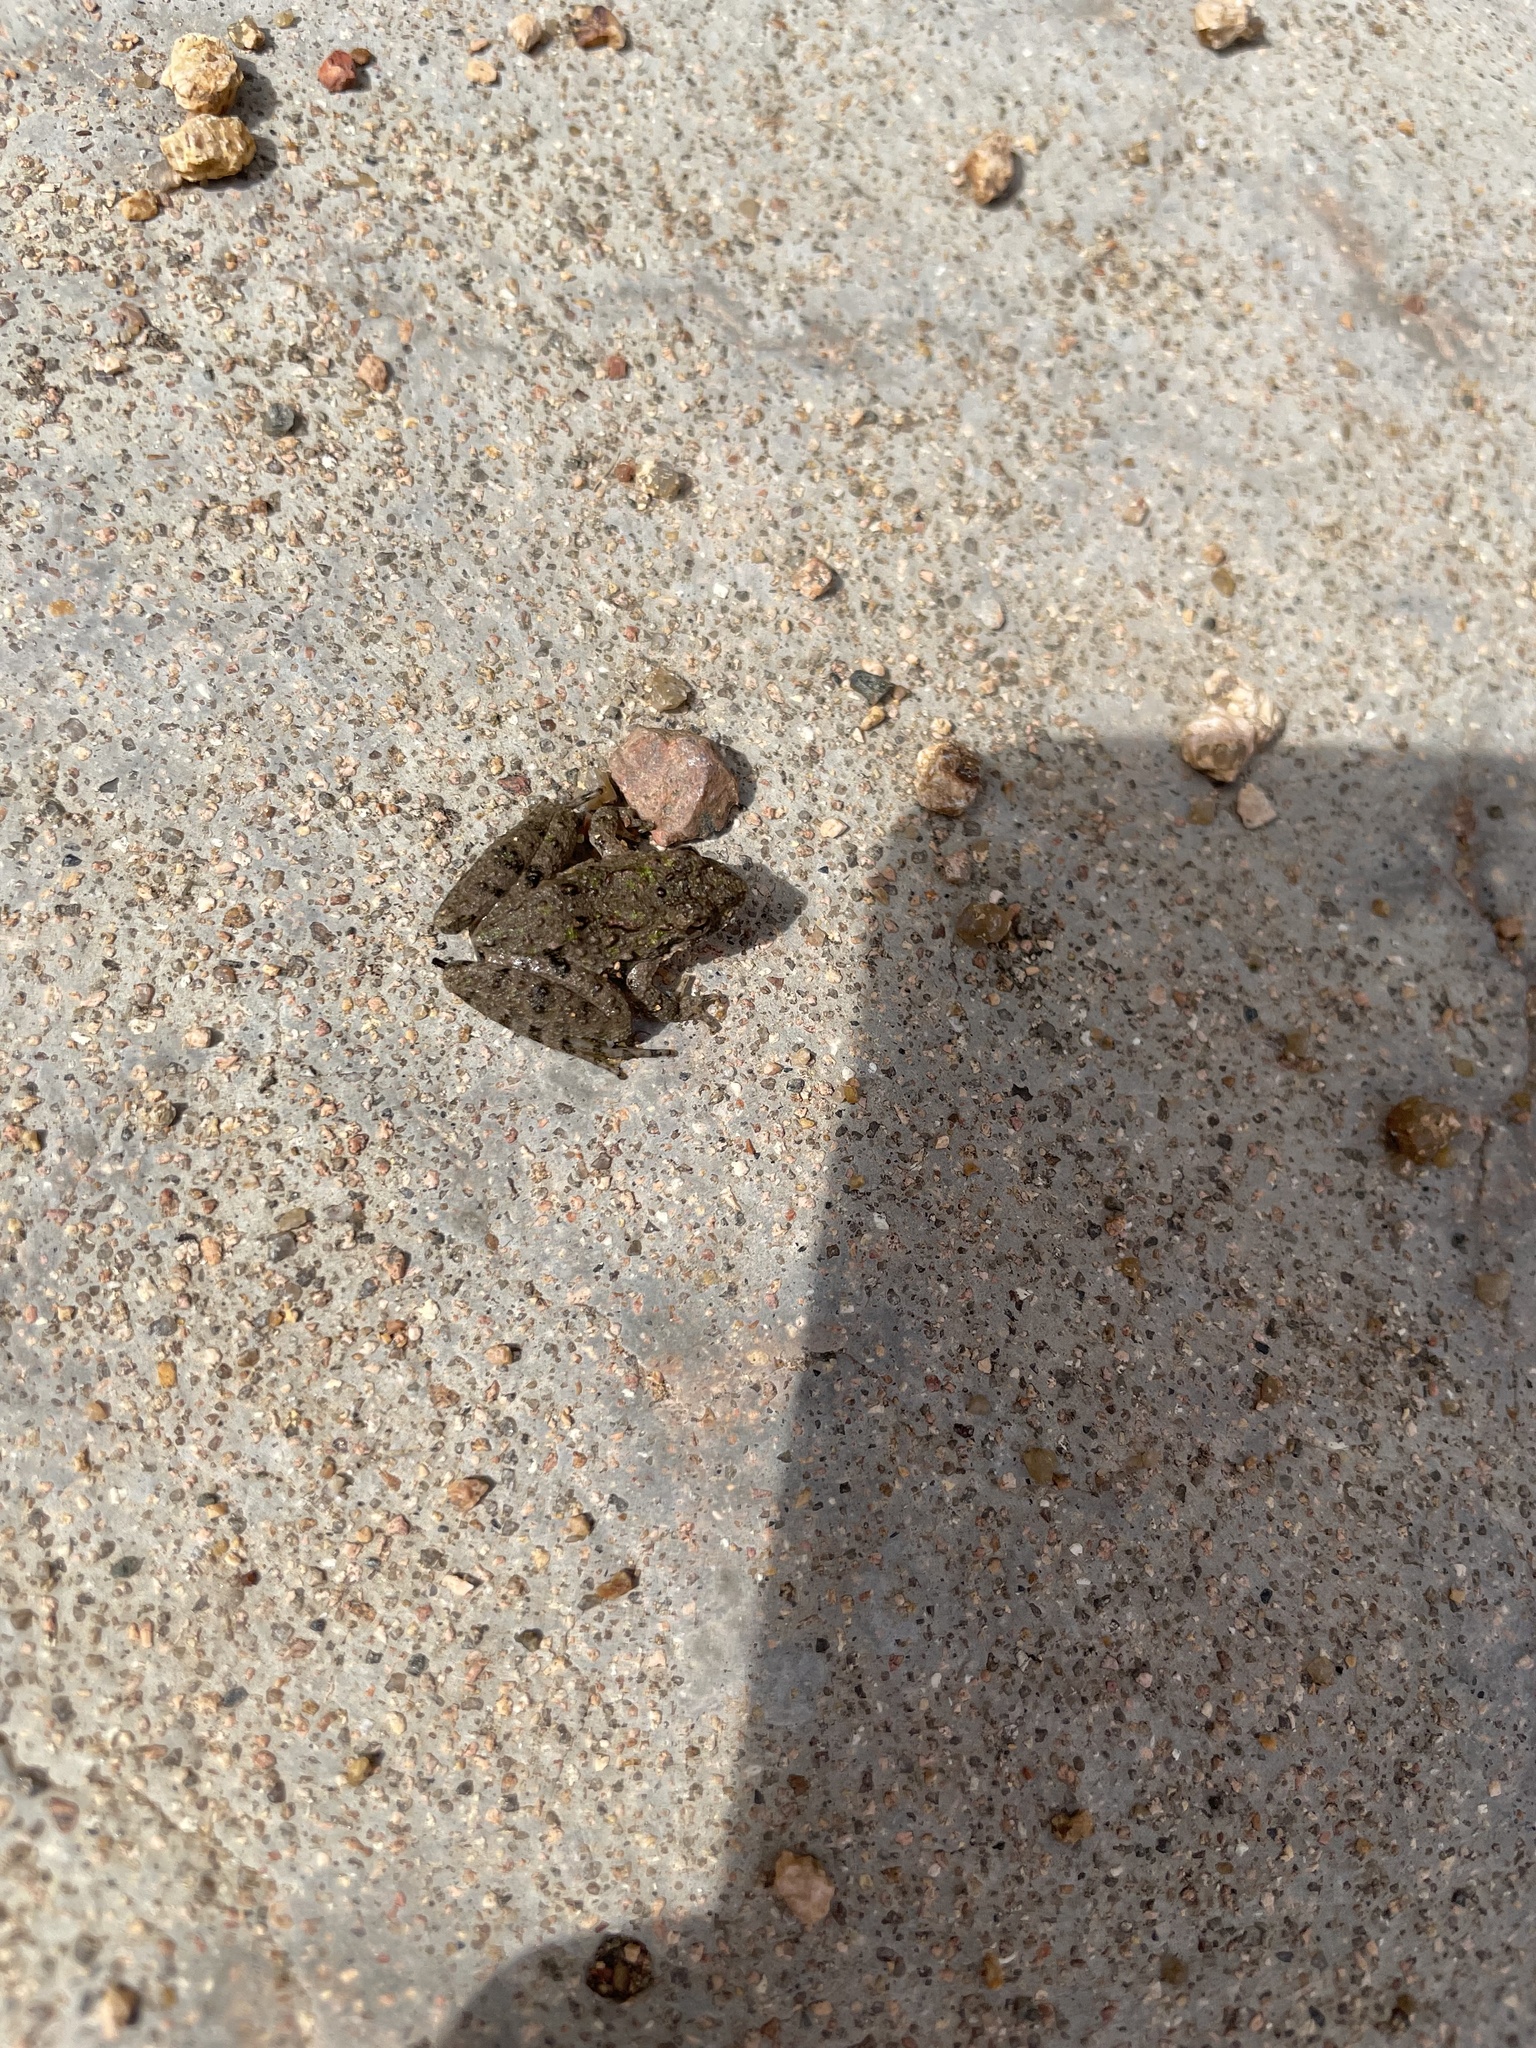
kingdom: Animalia
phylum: Chordata
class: Amphibia
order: Anura
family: Hylidae
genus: Acris
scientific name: Acris blanchardi
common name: Blanchard's cricket frog
